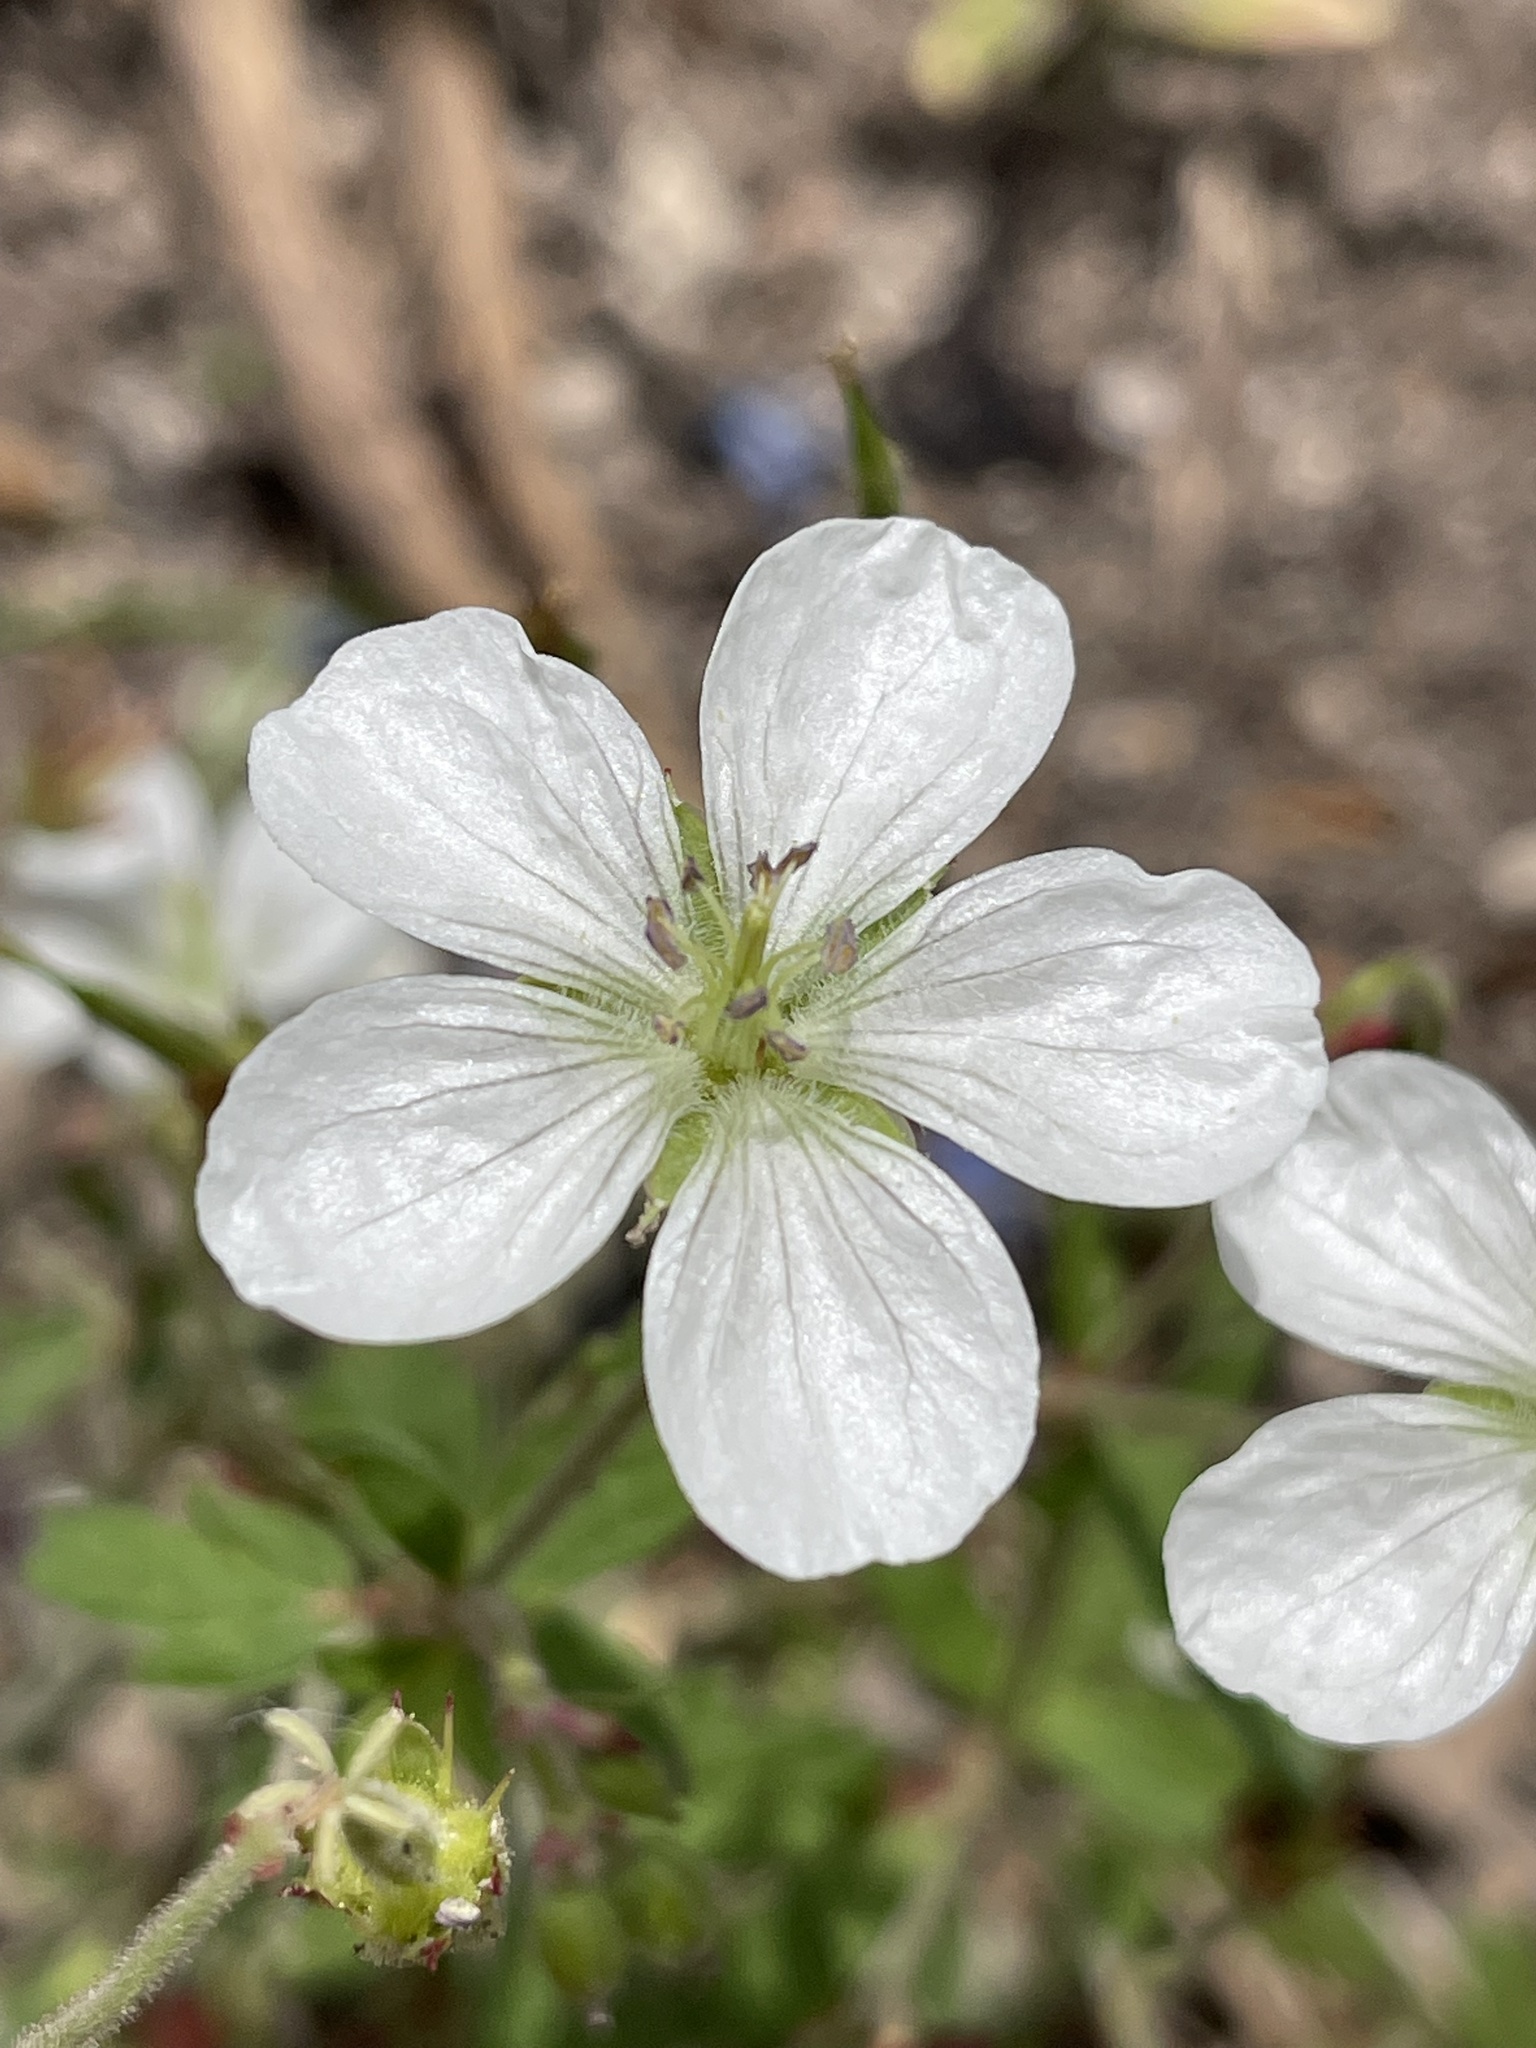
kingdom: Plantae
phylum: Tracheophyta
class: Magnoliopsida
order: Geraniales
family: Geraniaceae
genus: Geranium
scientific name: Geranium richardsonii
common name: Richardson's crane's-bill
